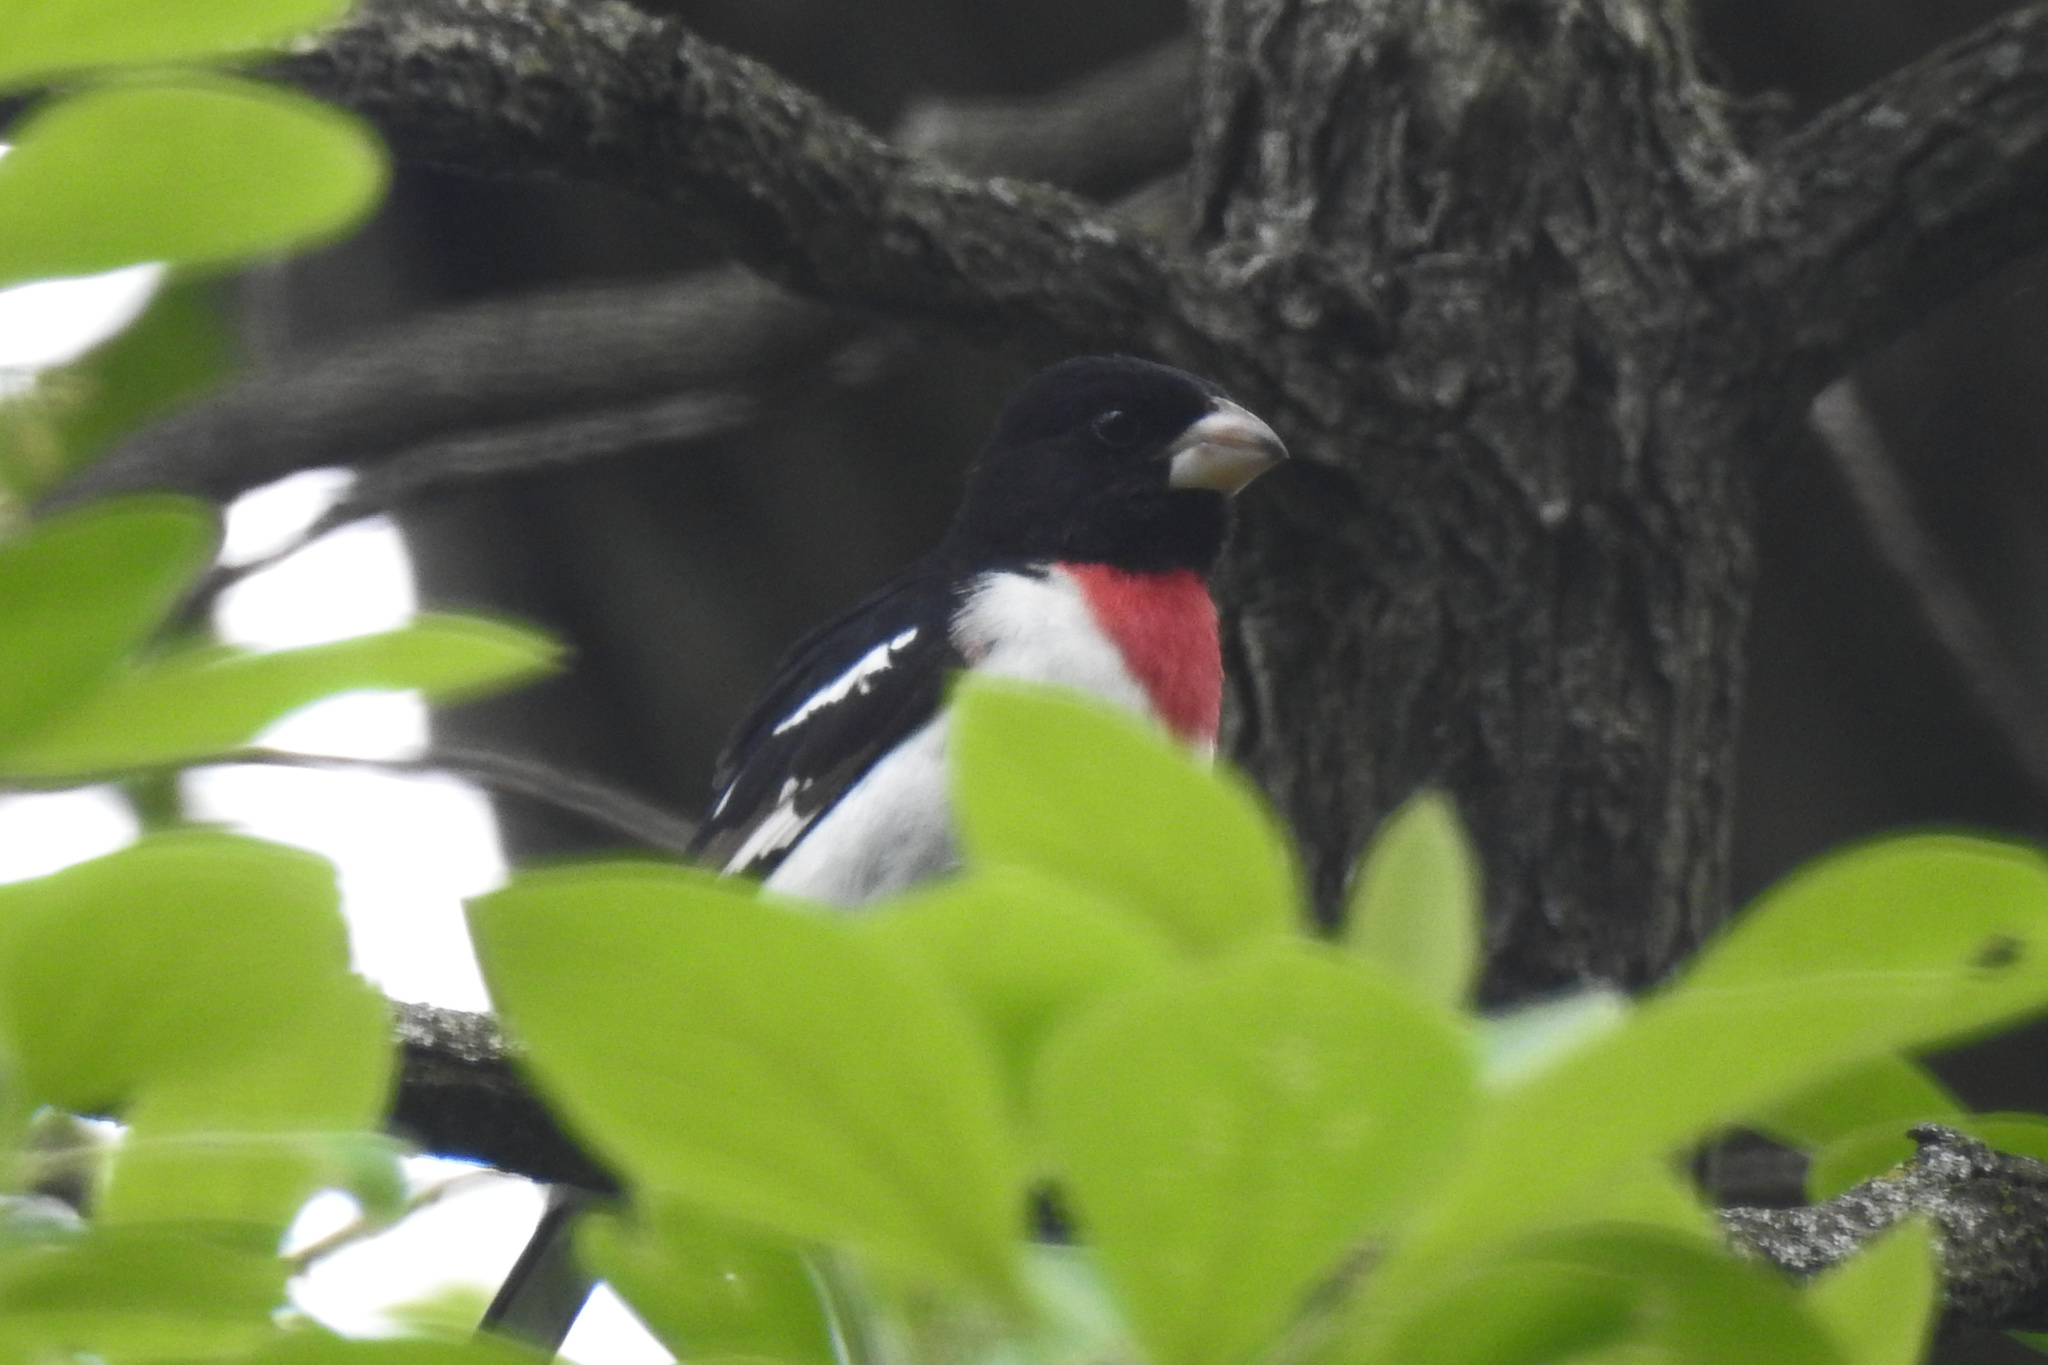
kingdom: Animalia
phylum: Chordata
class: Aves
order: Passeriformes
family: Cardinalidae
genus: Pheucticus
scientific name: Pheucticus ludovicianus
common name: Rose-breasted grosbeak
